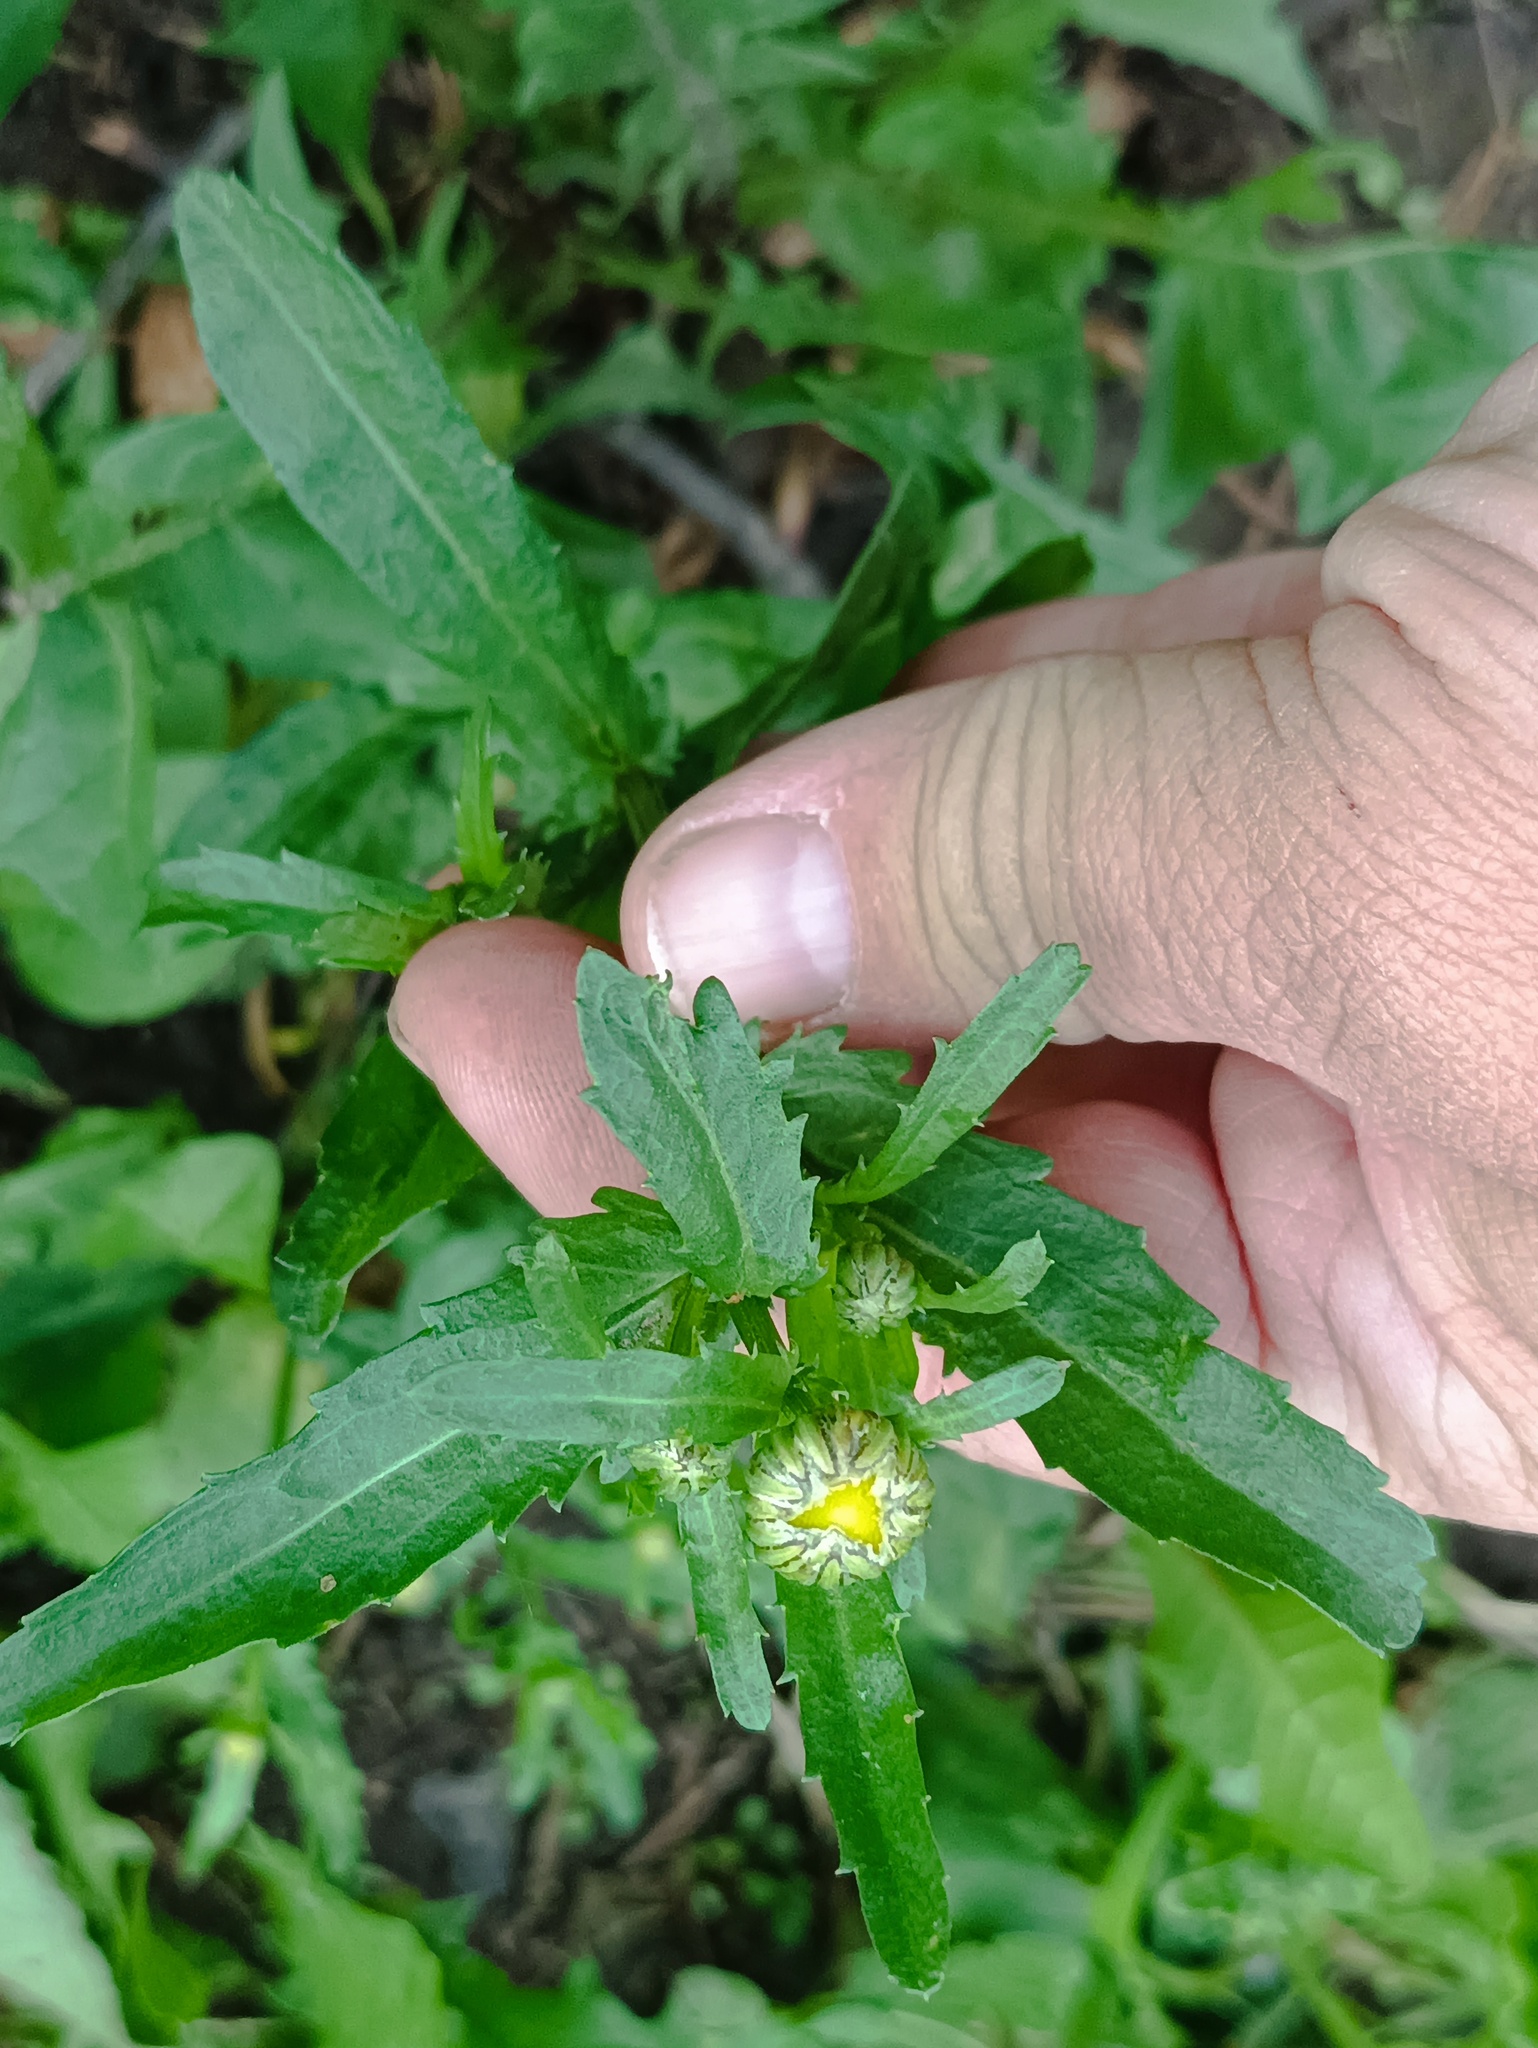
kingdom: Plantae
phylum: Tracheophyta
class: Magnoliopsida
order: Asterales
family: Asteraceae
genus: Leucanthemum
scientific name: Leucanthemum vulgare
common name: Oxeye daisy
